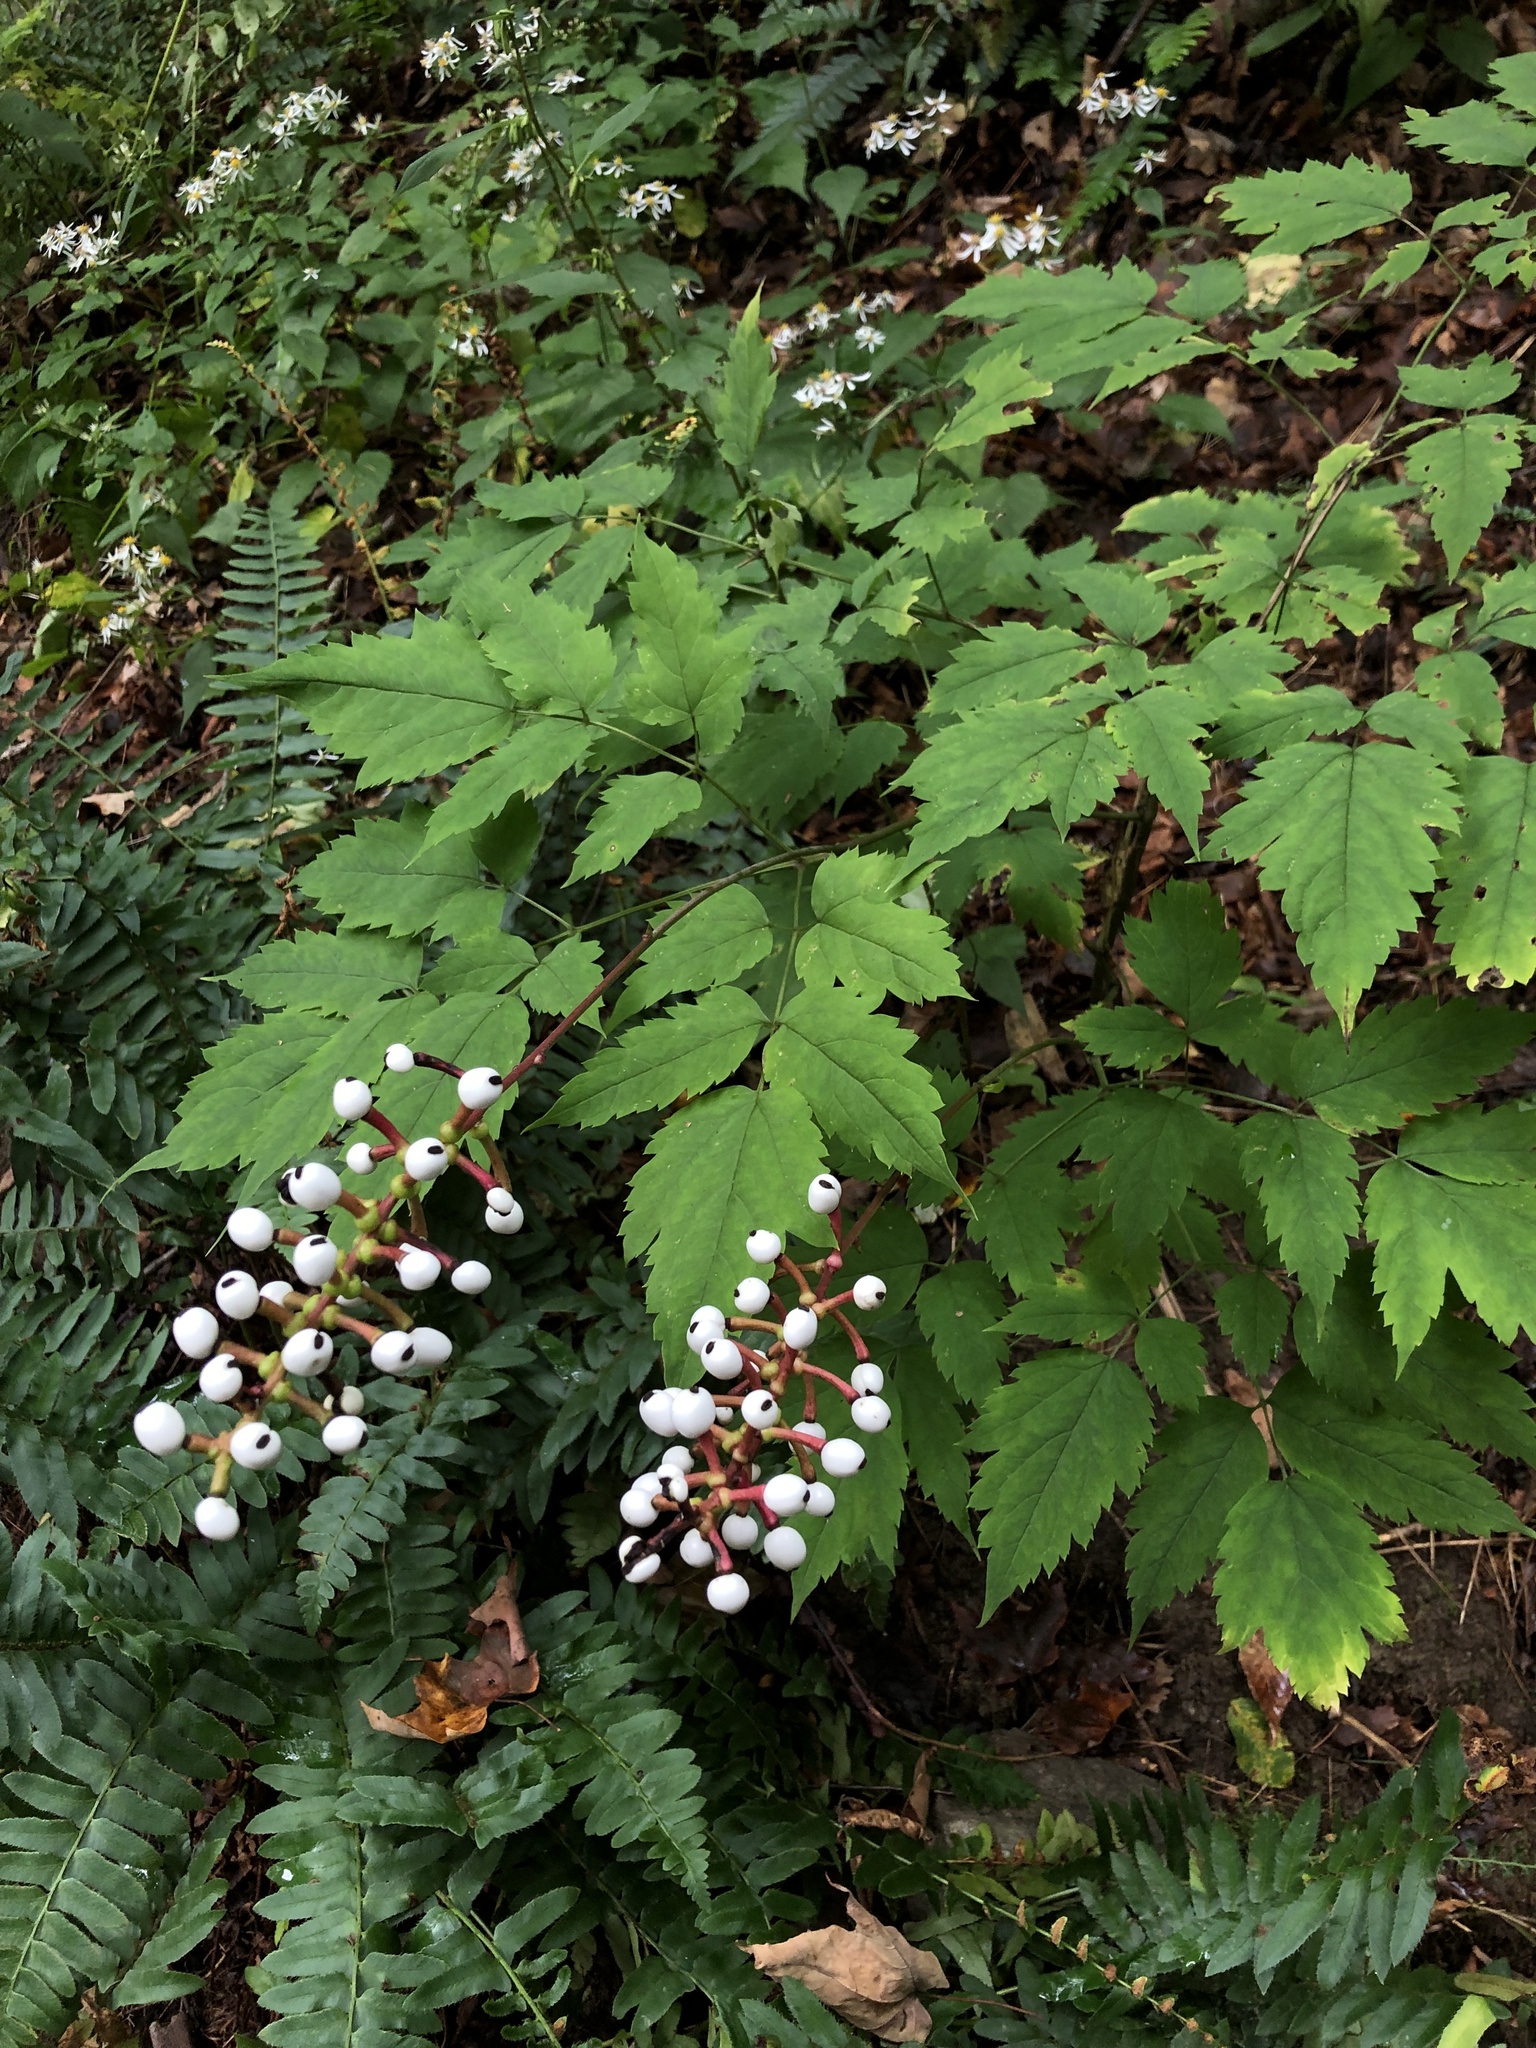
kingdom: Plantae
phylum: Tracheophyta
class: Magnoliopsida
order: Ranunculales
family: Ranunculaceae
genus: Actaea
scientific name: Actaea pachypoda
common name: Doll's-eyes
